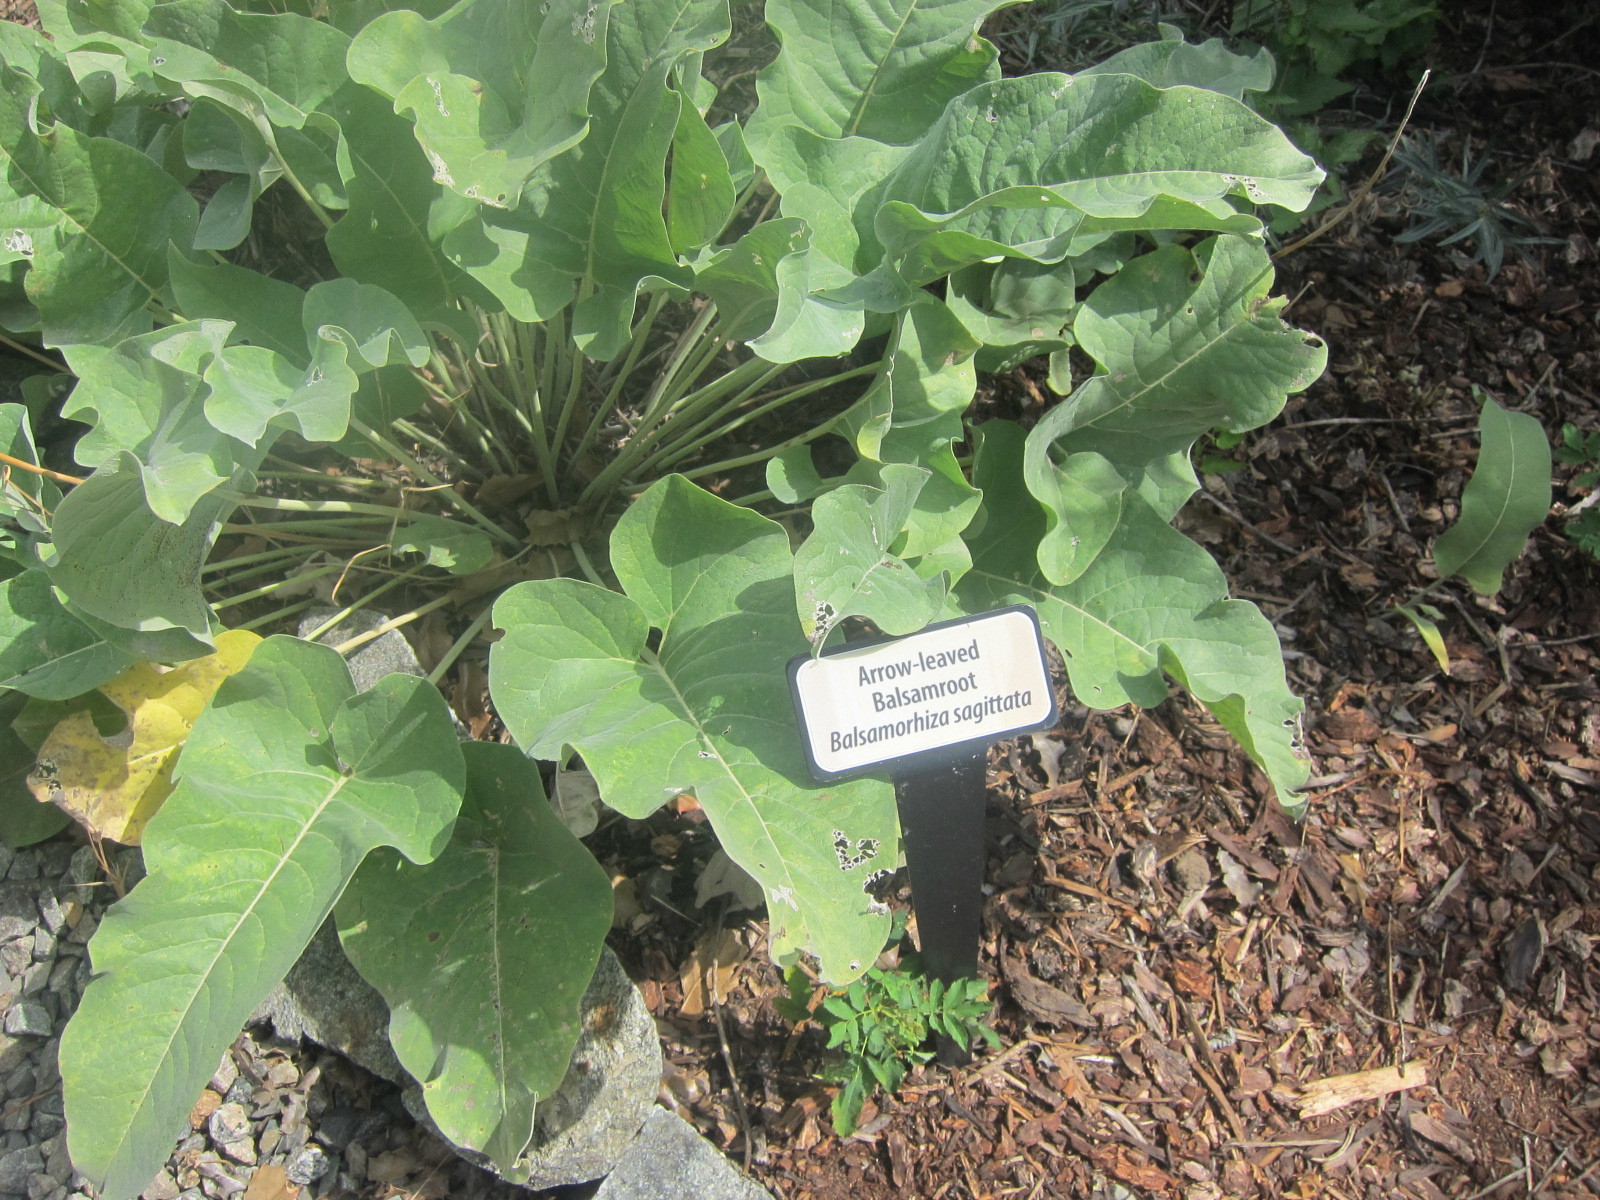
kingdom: Plantae
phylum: Tracheophyta
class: Magnoliopsida
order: Asterales
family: Asteraceae
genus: Wyethia
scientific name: Wyethia sagittata
